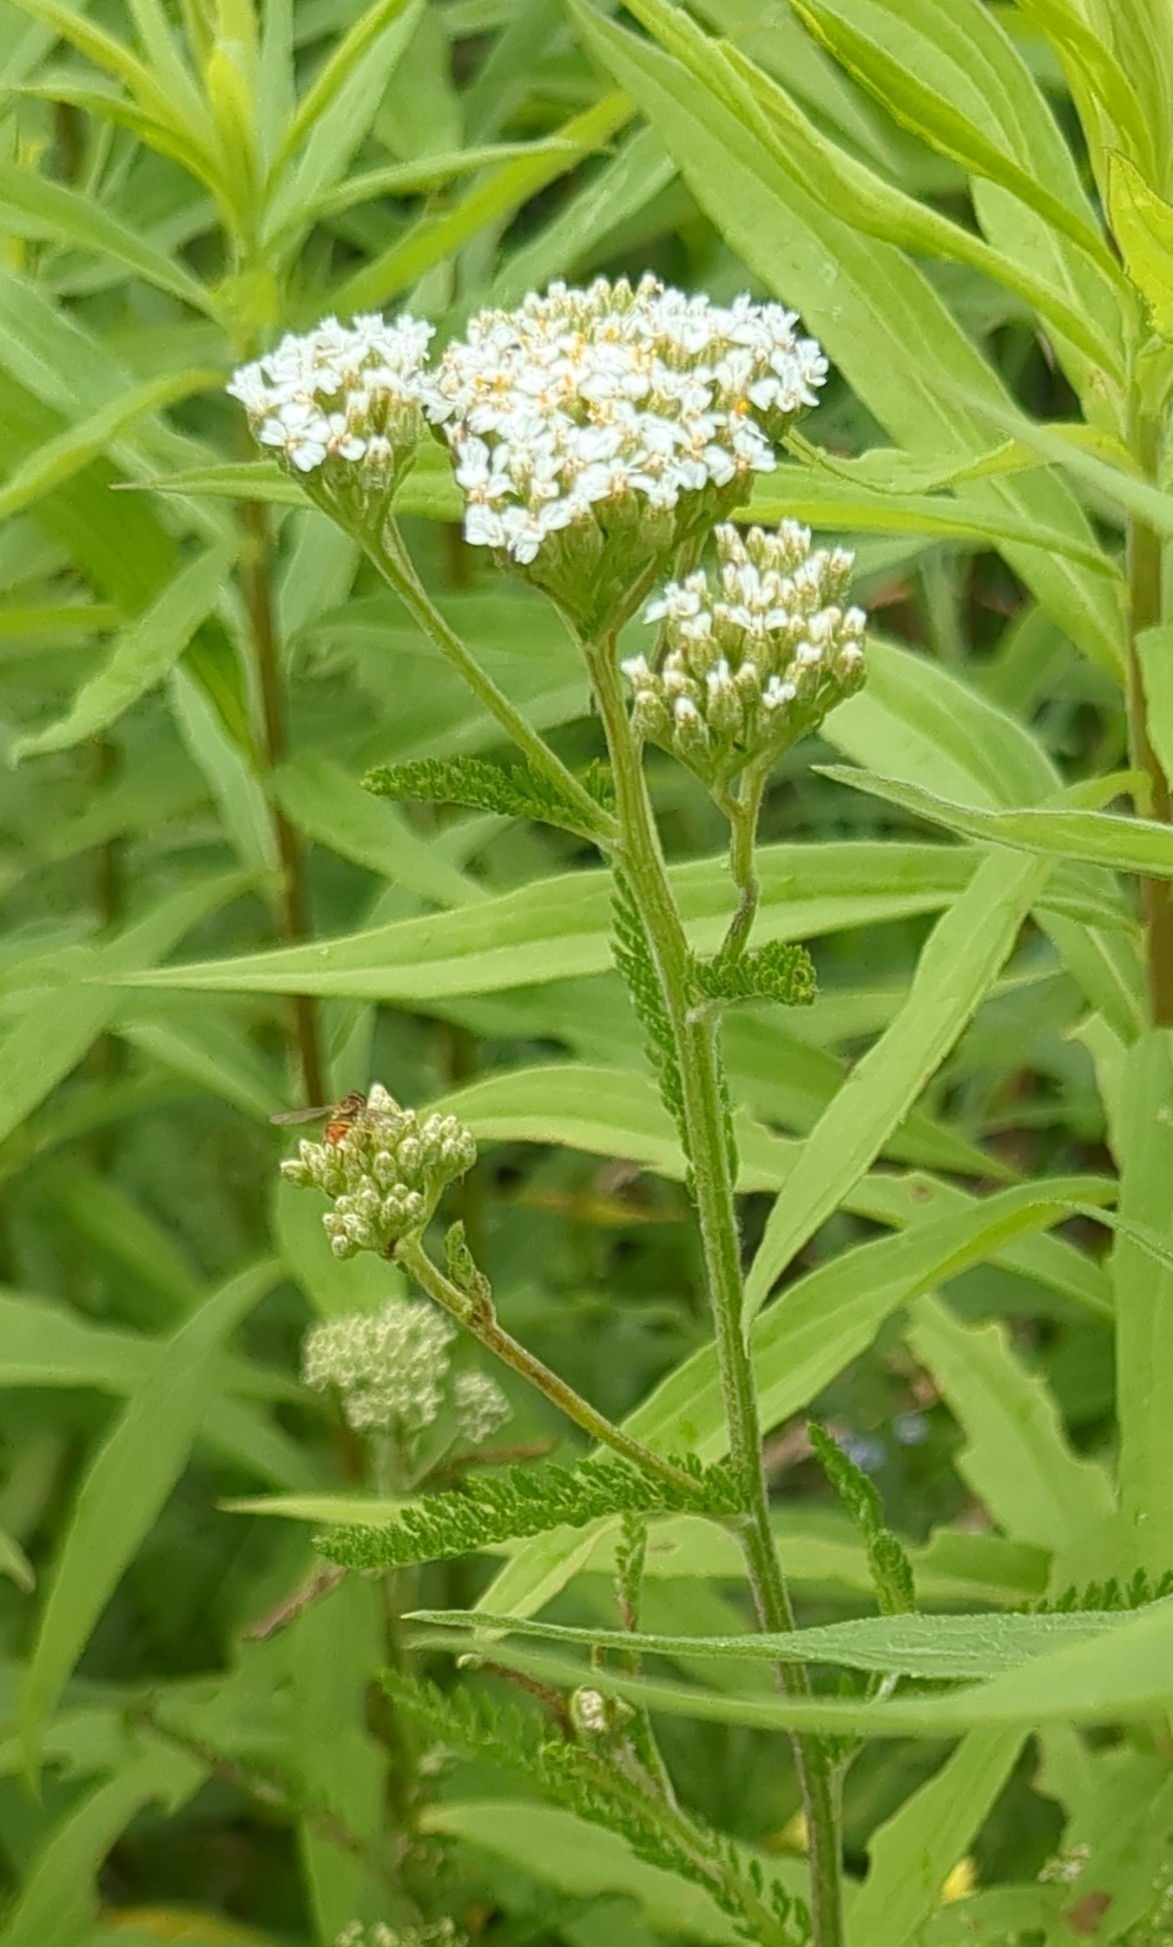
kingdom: Plantae
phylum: Tracheophyta
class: Magnoliopsida
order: Asterales
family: Asteraceae
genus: Achillea
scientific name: Achillea millefolium
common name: Yarrow
